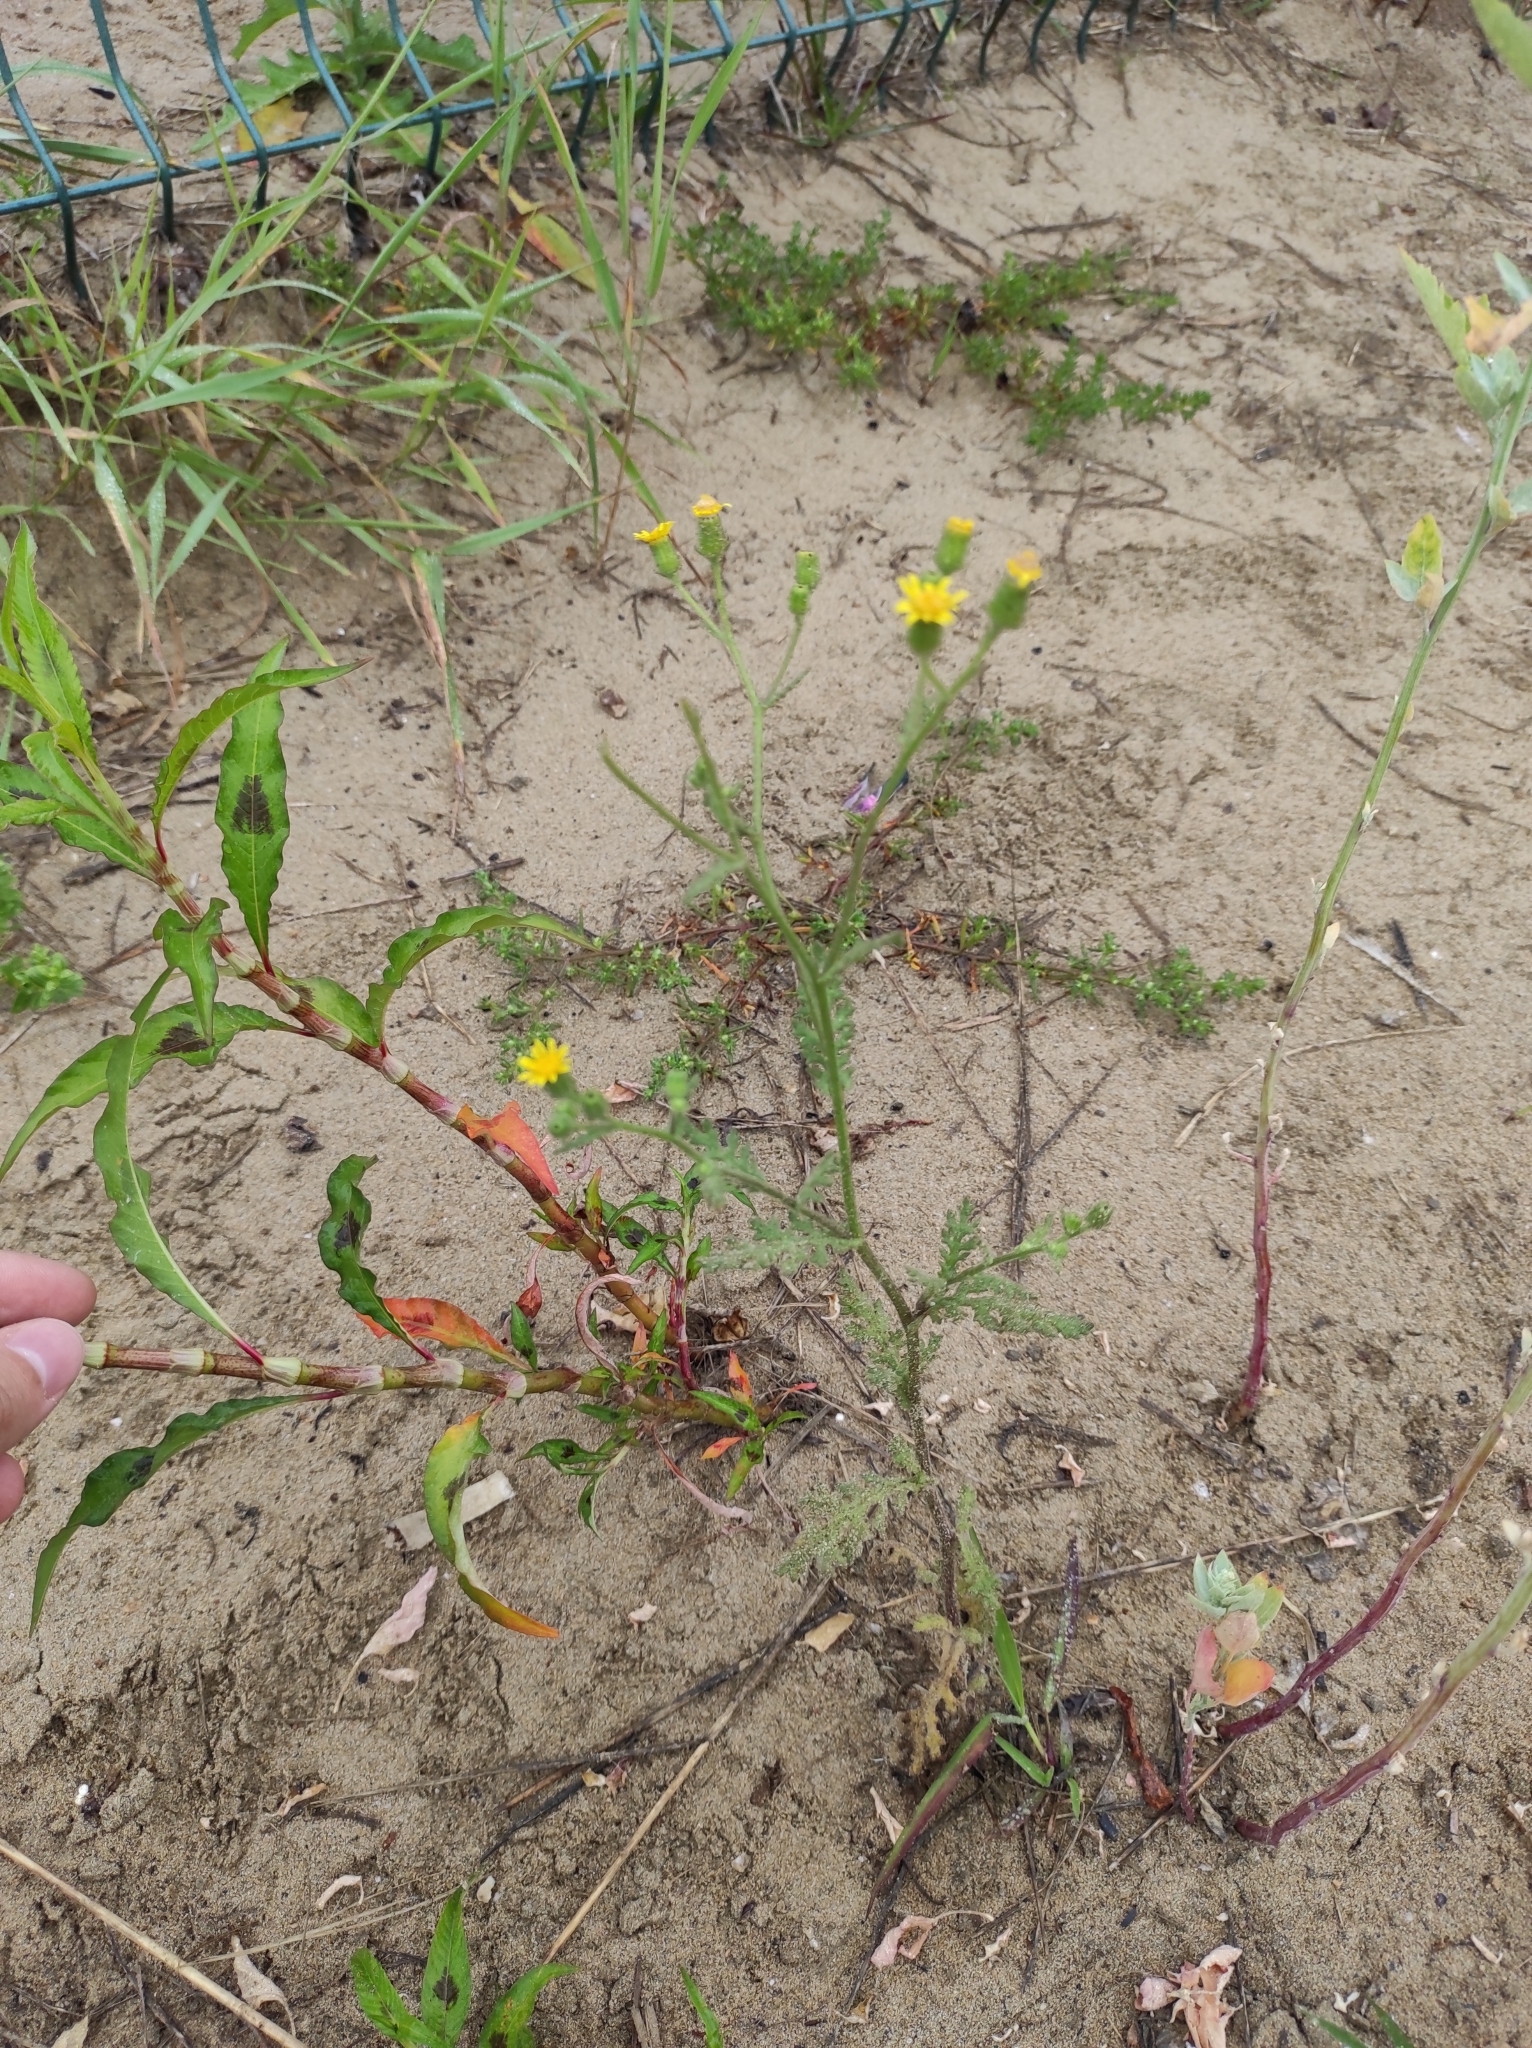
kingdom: Plantae
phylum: Tracheophyta
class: Magnoliopsida
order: Asterales
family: Asteraceae
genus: Senecio
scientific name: Senecio viscosus
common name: Sticky groundsel
